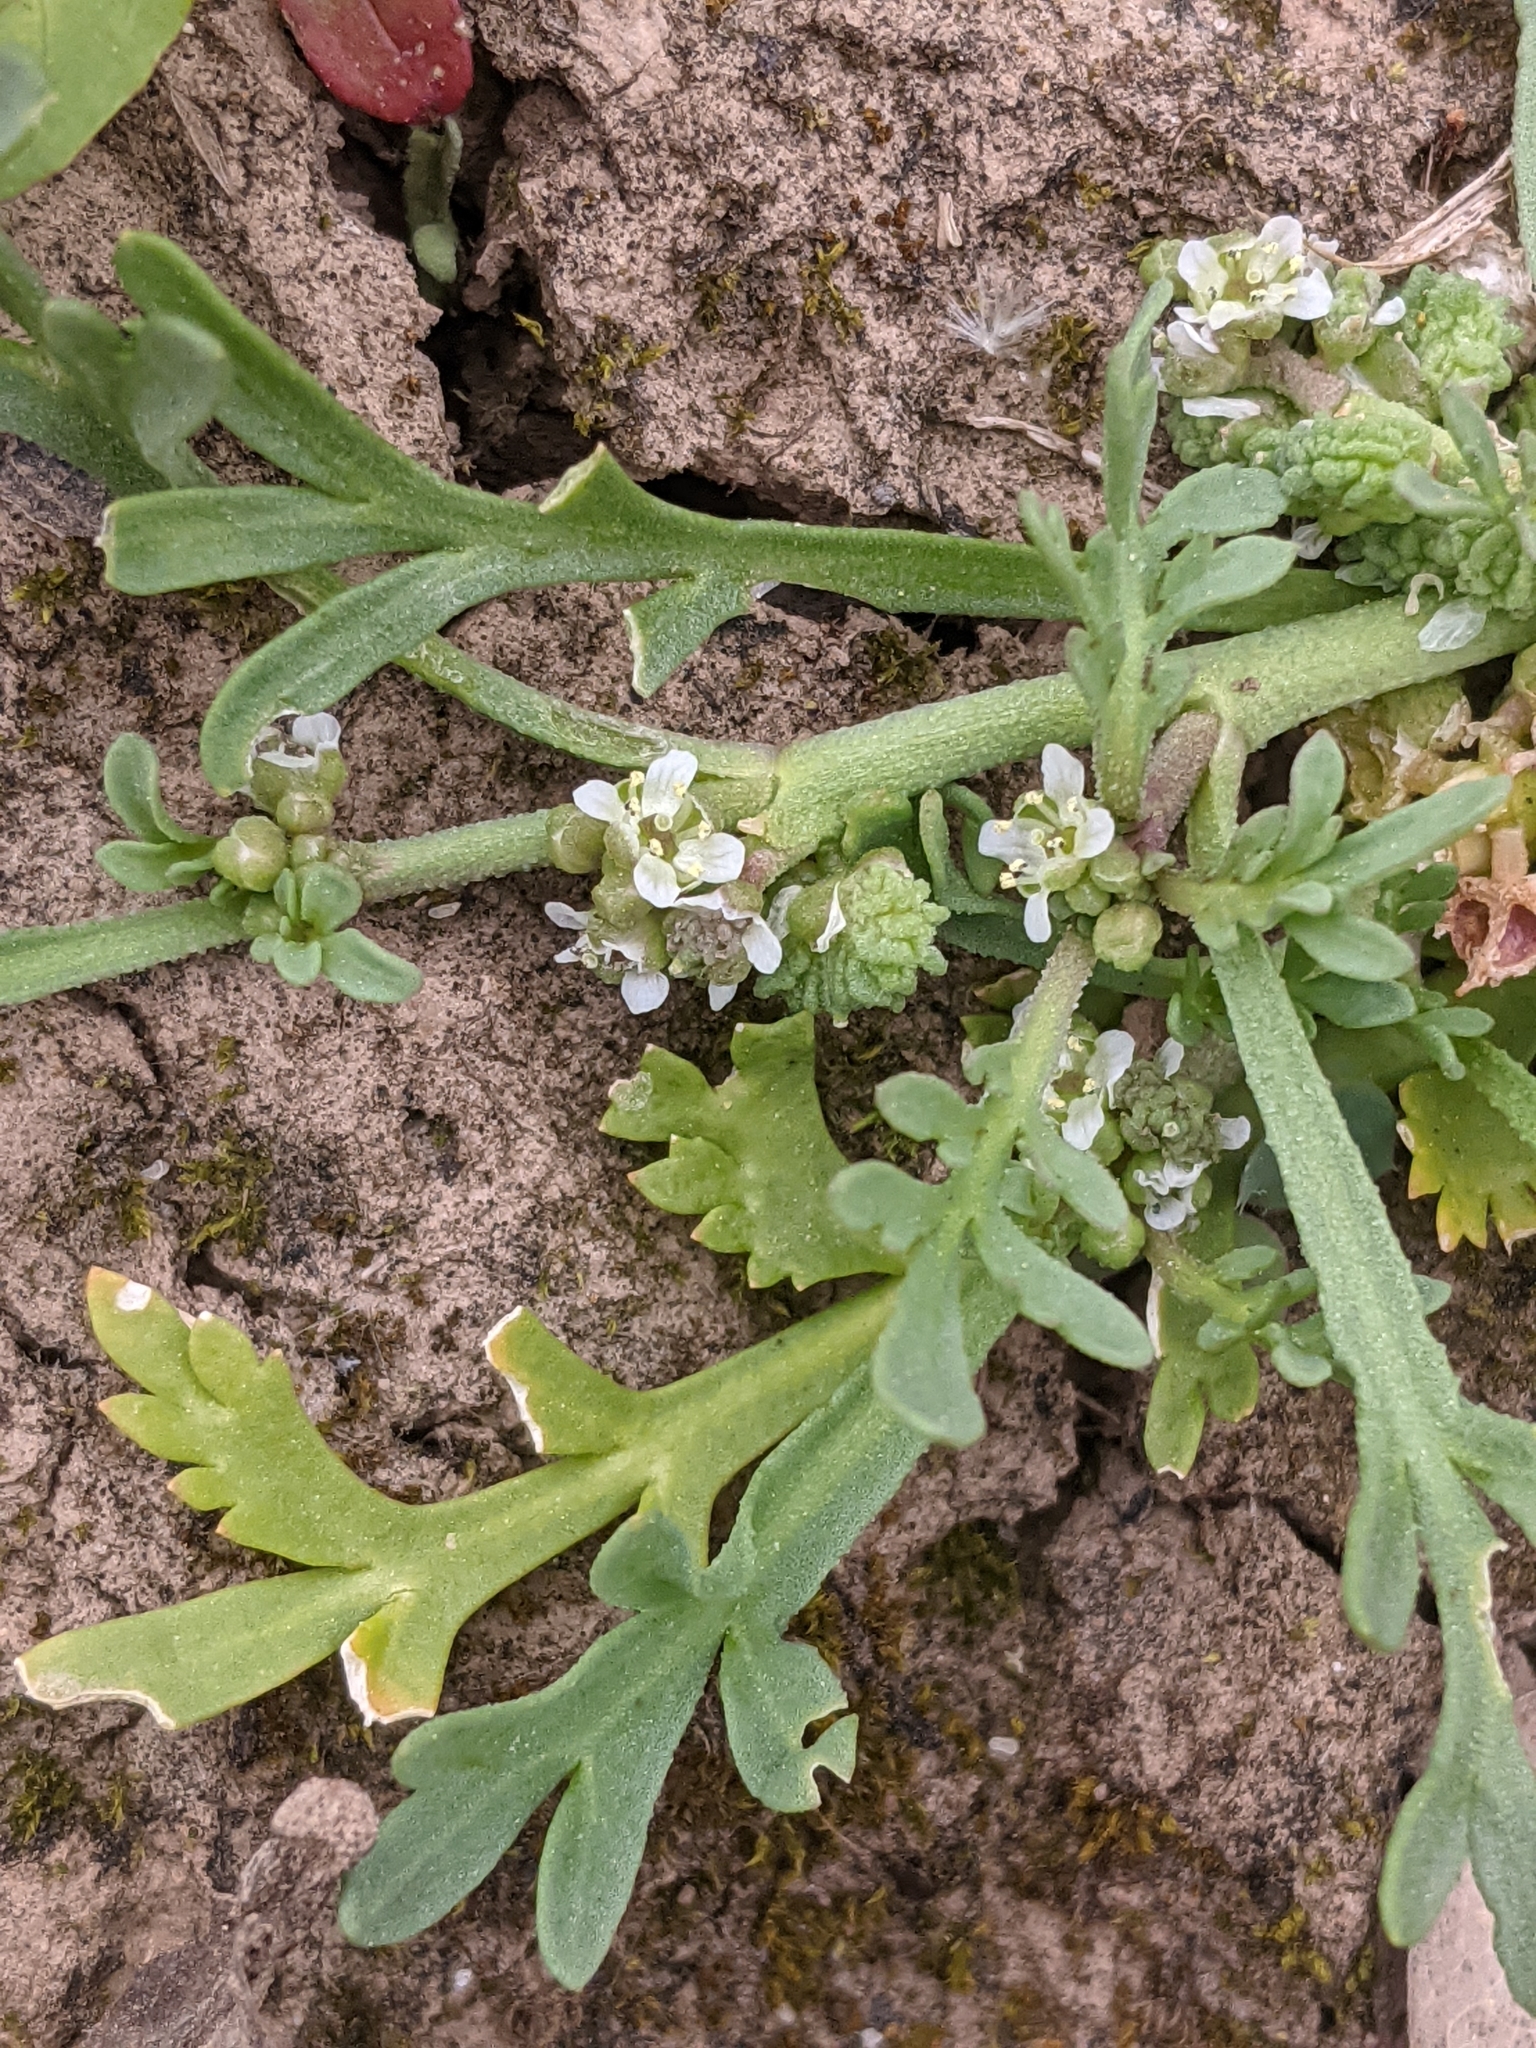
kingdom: Plantae
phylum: Tracheophyta
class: Magnoliopsida
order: Brassicales
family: Brassicaceae
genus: Lepidium
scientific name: Lepidium coronopus
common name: Greater swinecress
